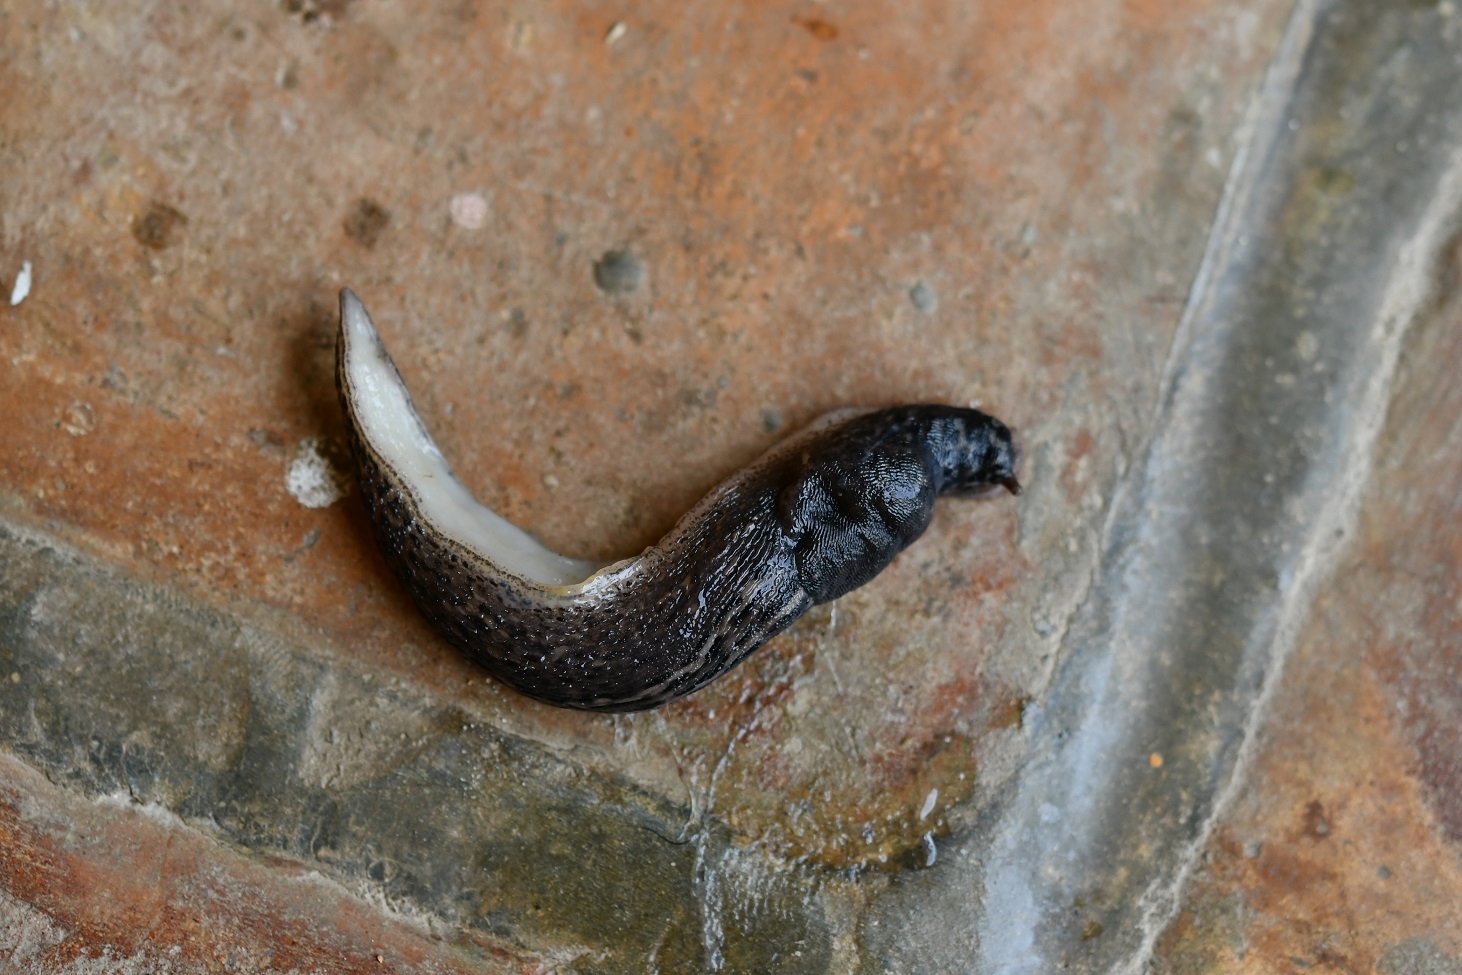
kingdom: Animalia
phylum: Mollusca
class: Gastropoda
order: Stylommatophora
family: Limacidae
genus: Limax
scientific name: Limax maximus
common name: Great grey slug
